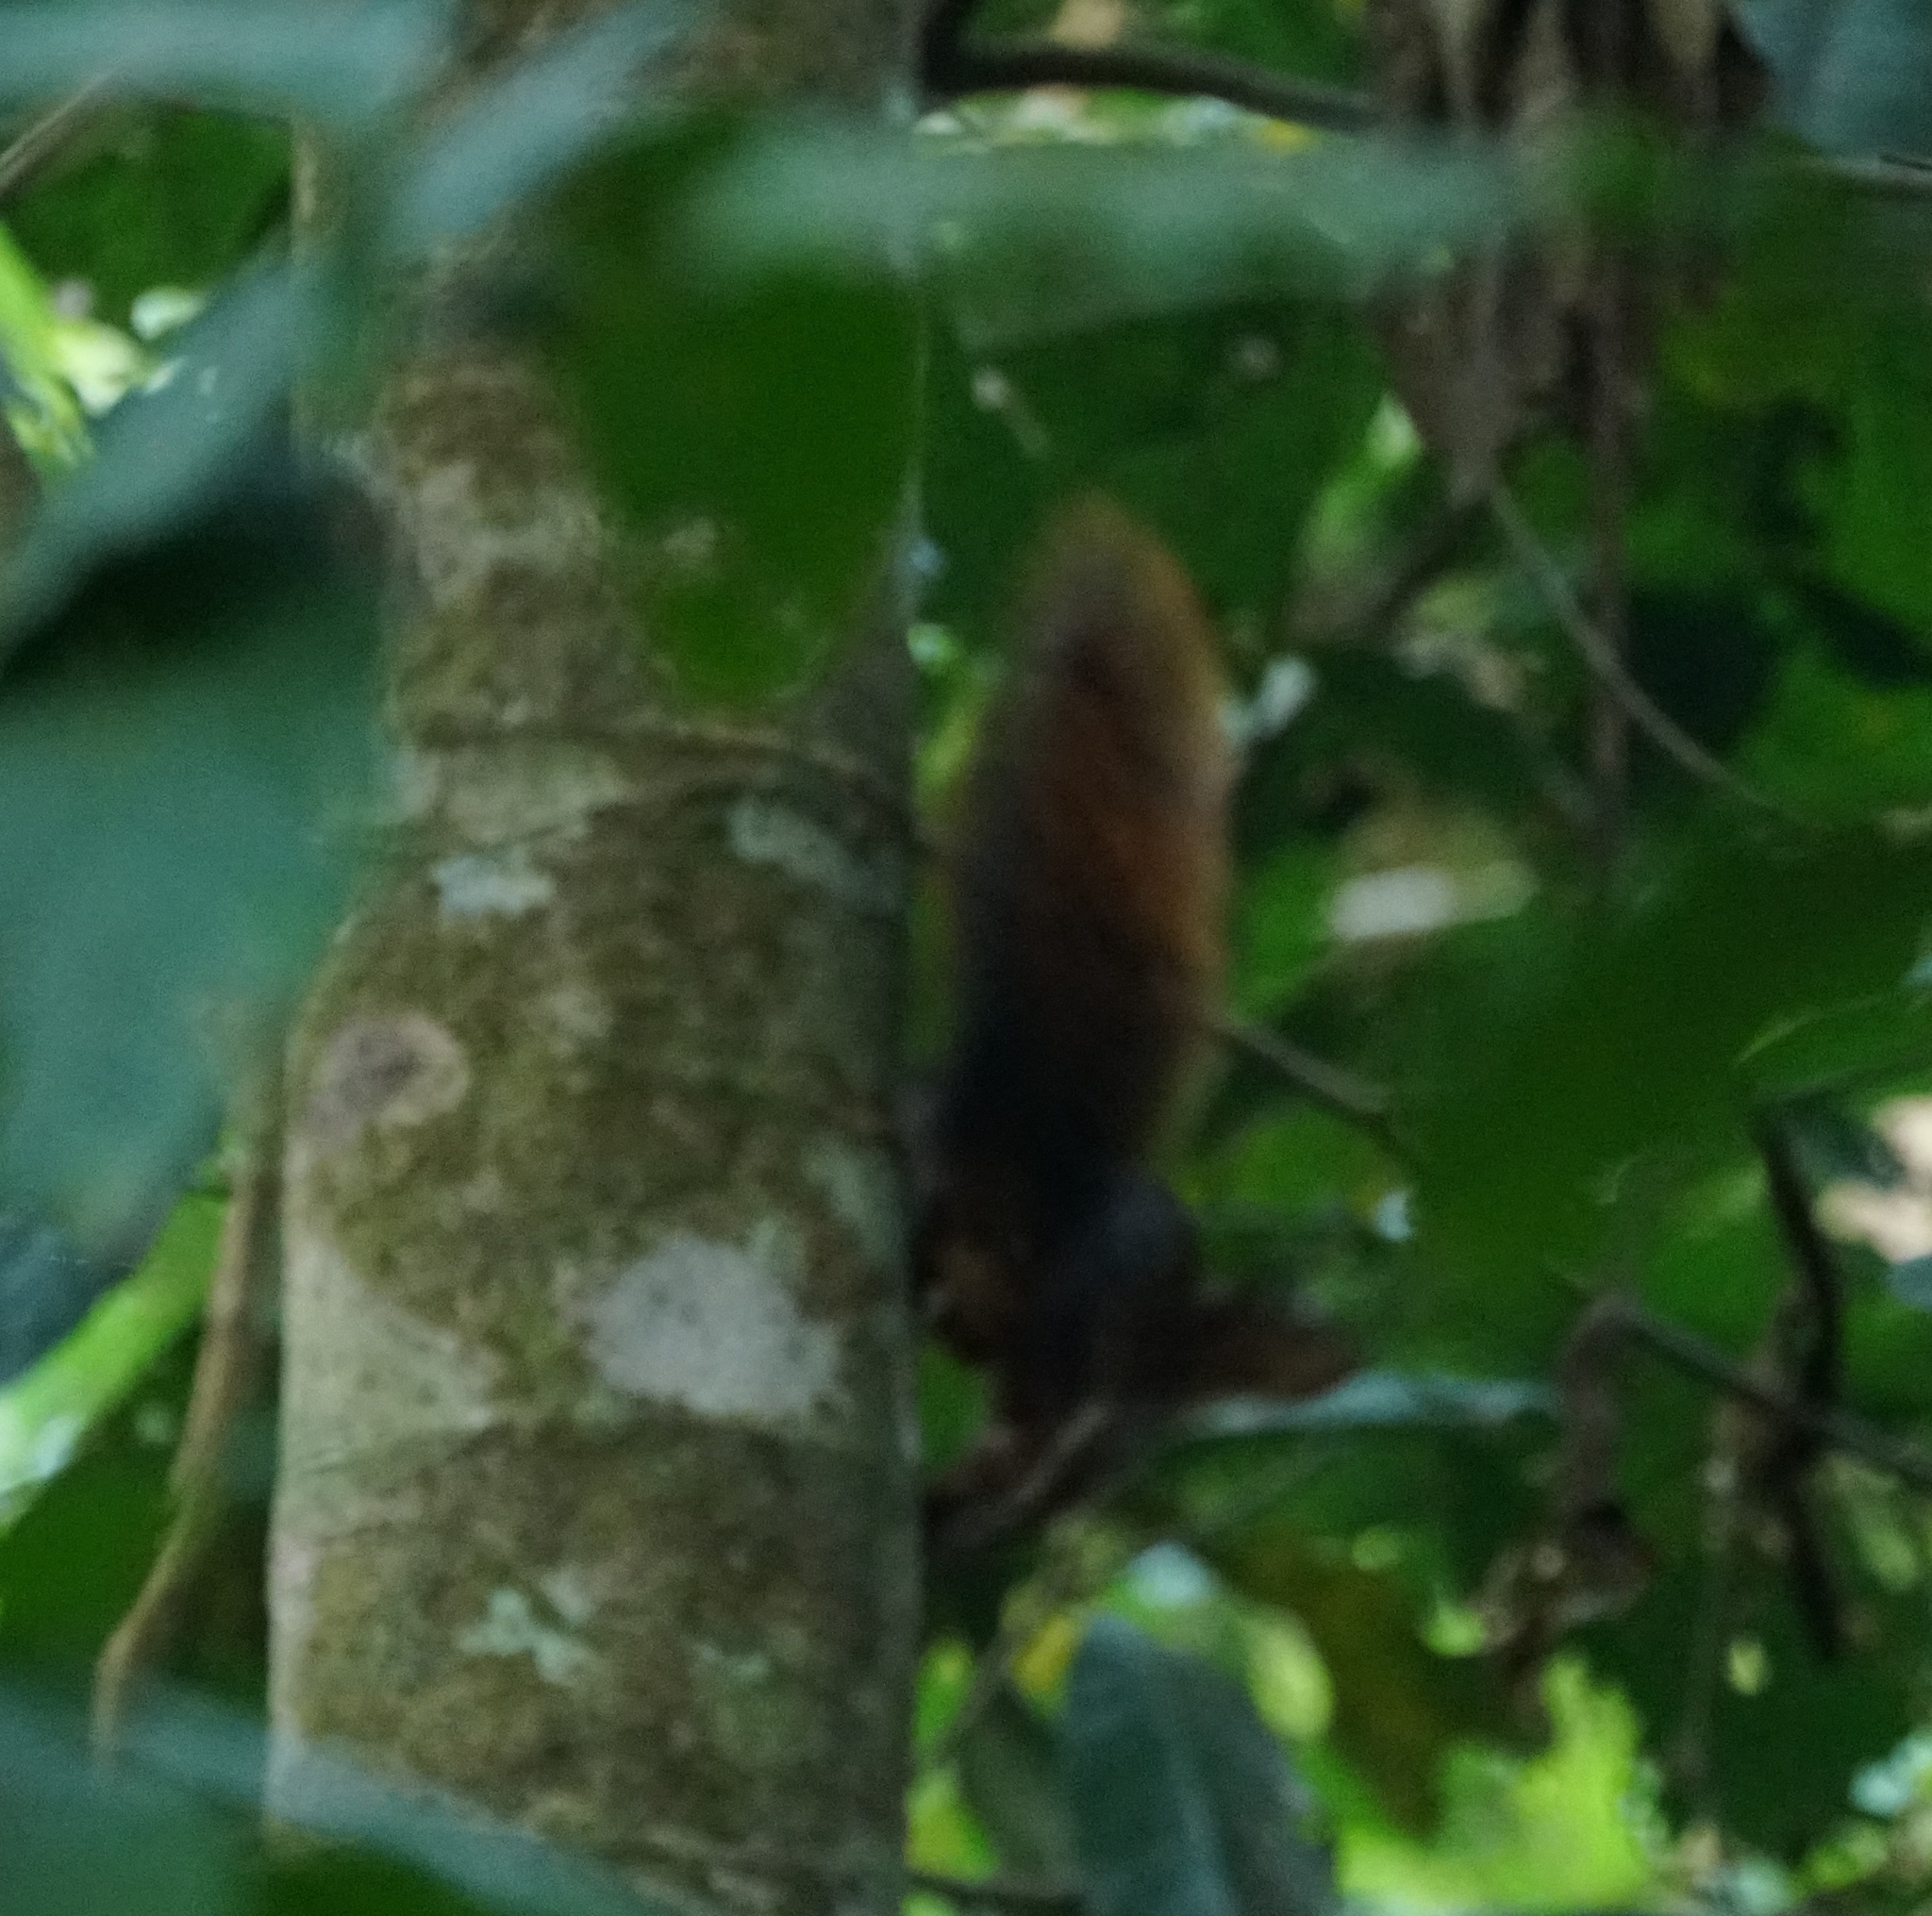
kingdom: Animalia
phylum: Chordata
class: Mammalia
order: Rodentia
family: Sciuridae
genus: Sciurus
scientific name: Sciurus spadiceus
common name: Southern amazon red squirrel
